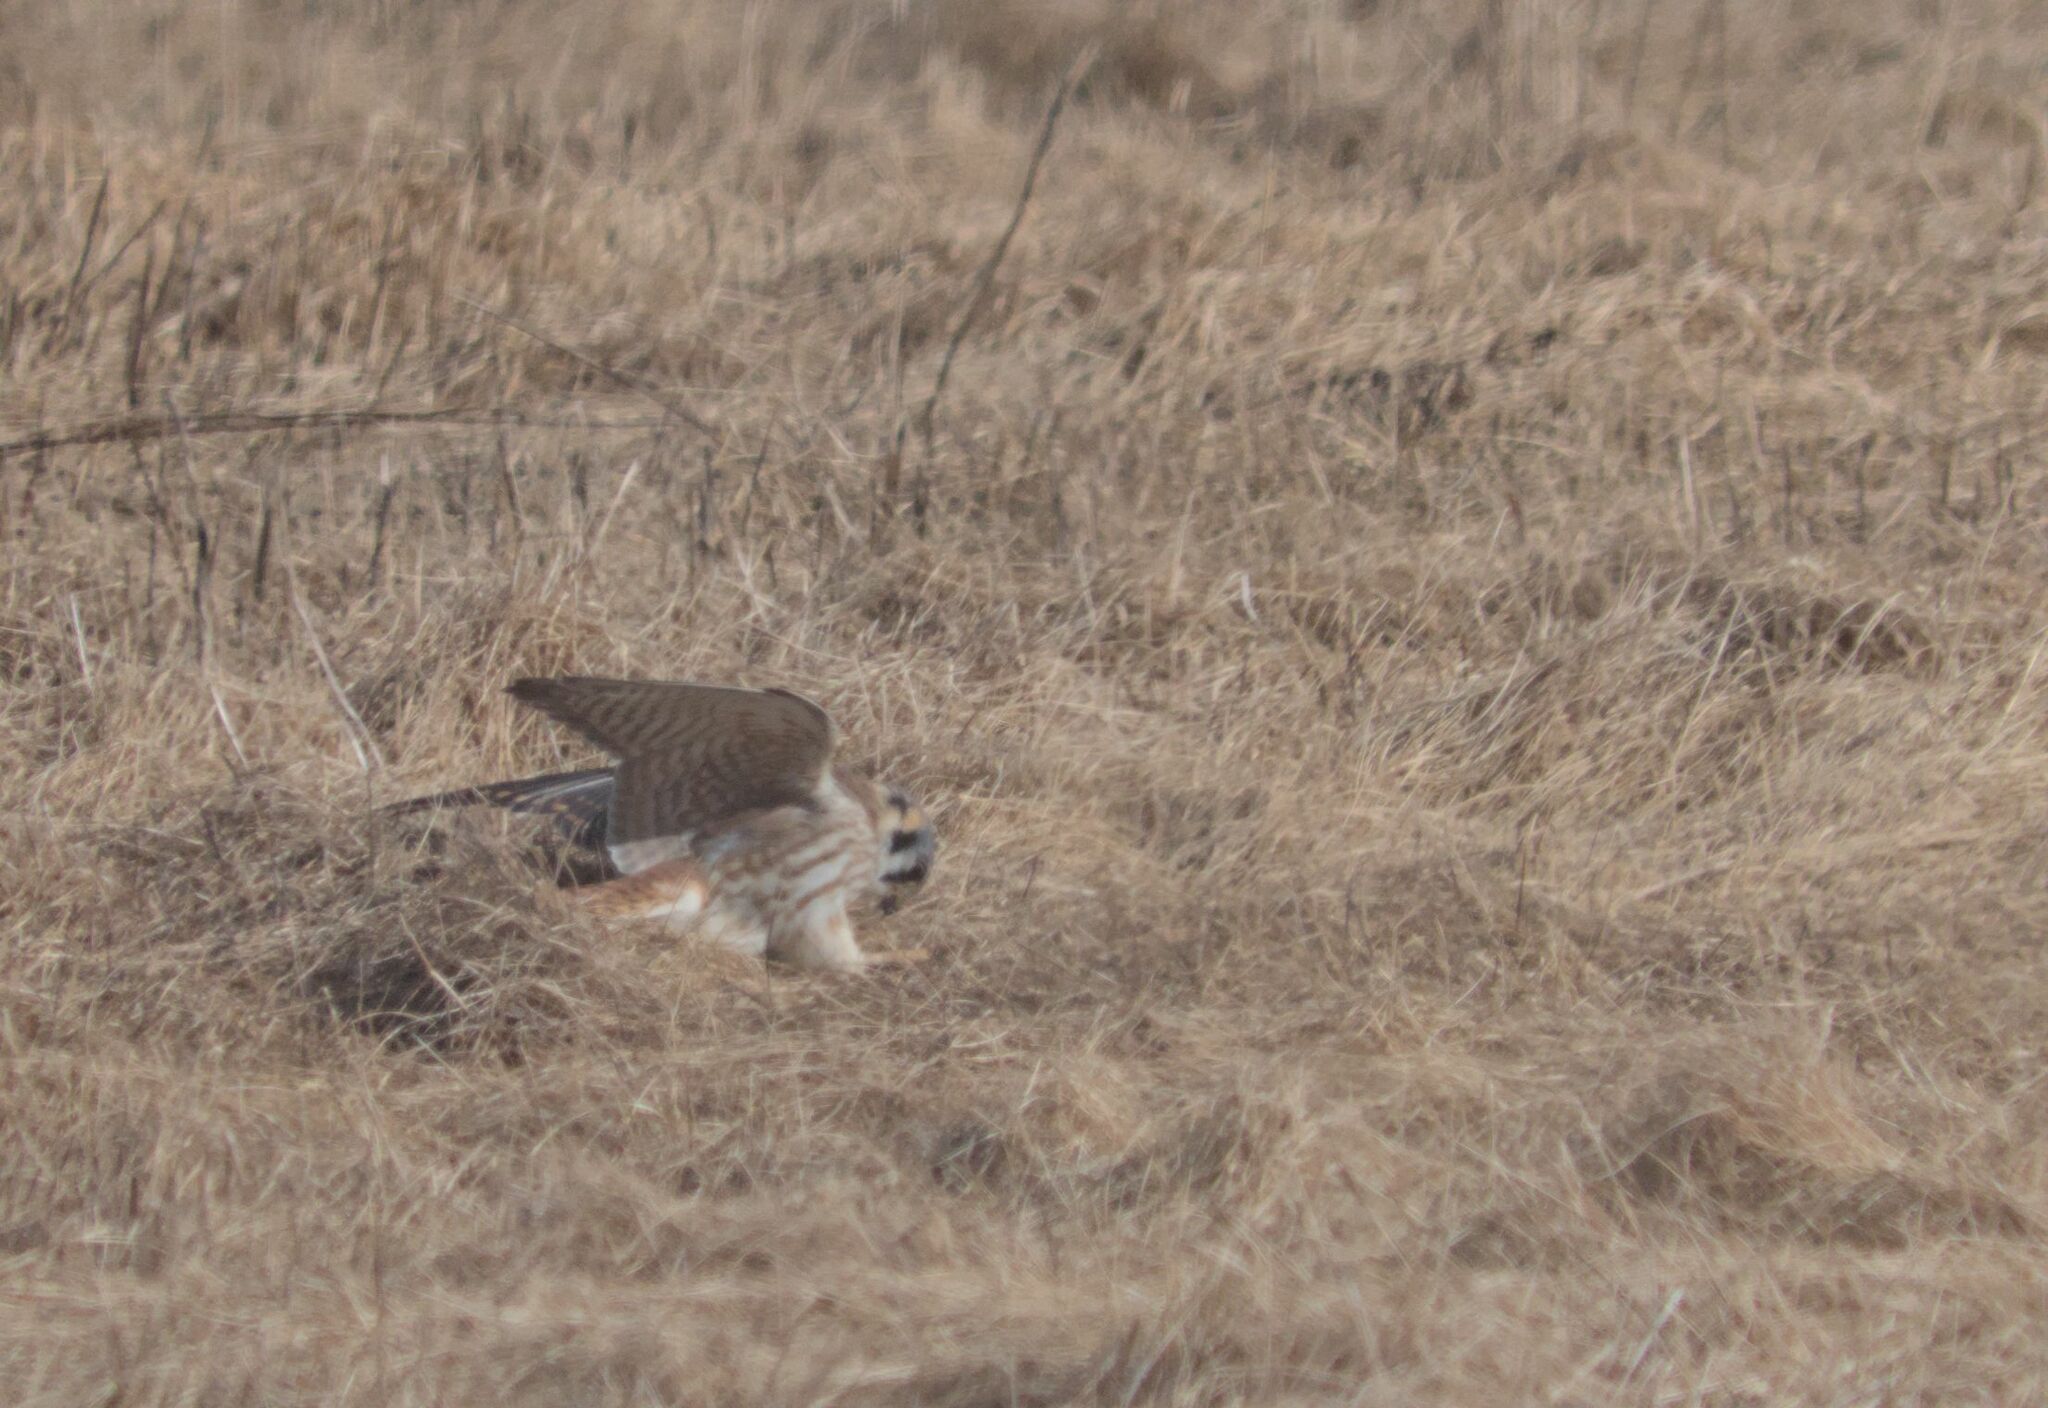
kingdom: Animalia
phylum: Chordata
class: Aves
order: Falconiformes
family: Falconidae
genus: Falco
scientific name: Falco sparverius
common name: American kestrel
